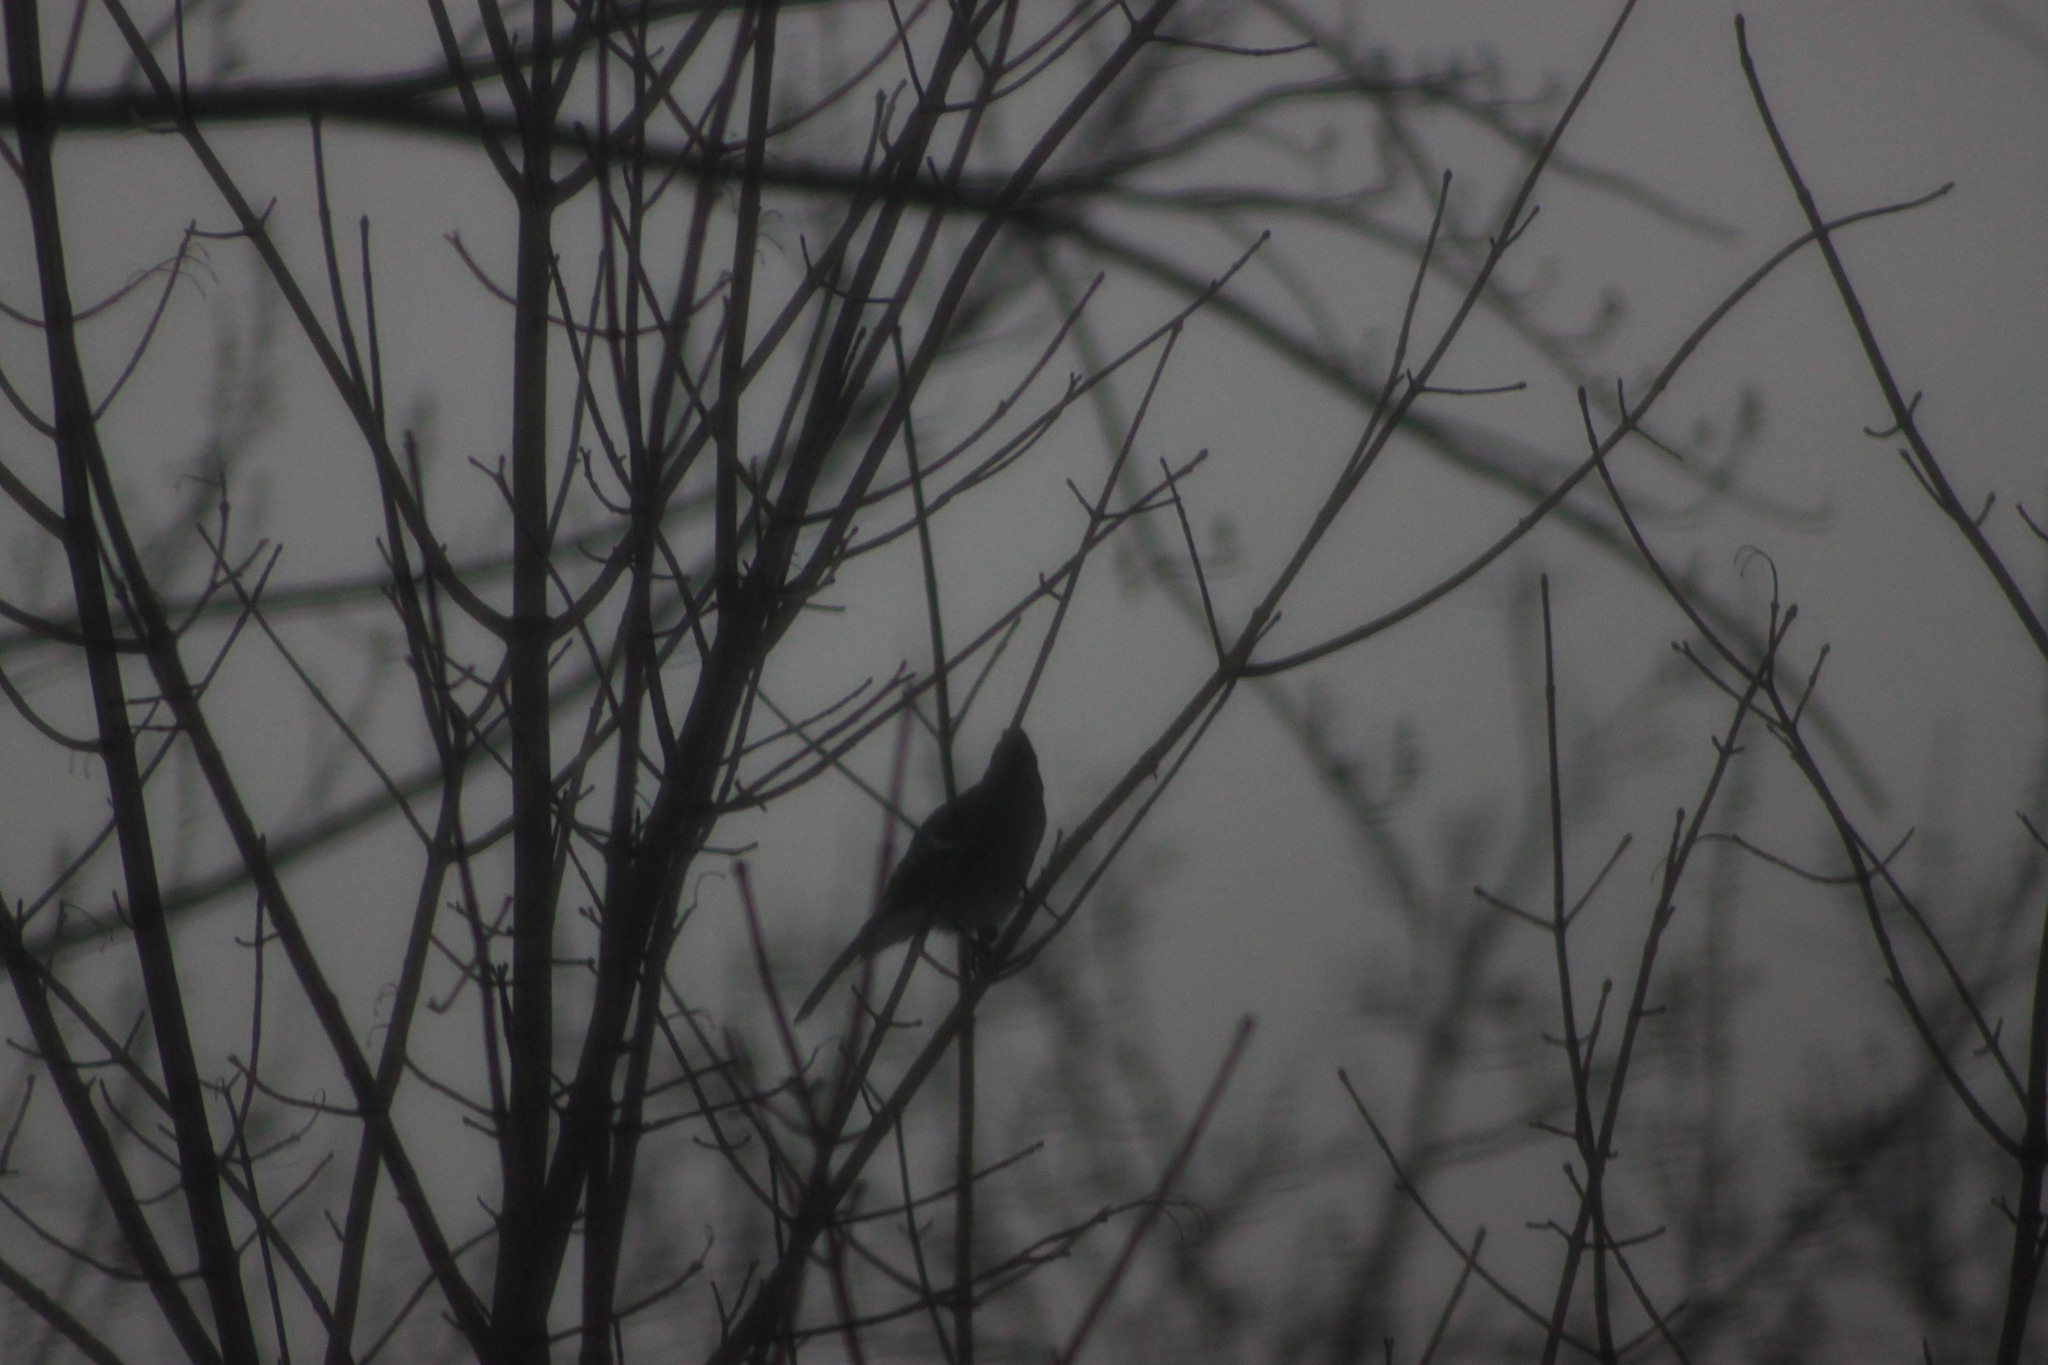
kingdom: Animalia
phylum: Chordata
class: Aves
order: Passeriformes
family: Corvidae
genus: Cyanocitta
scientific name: Cyanocitta cristata
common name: Blue jay
